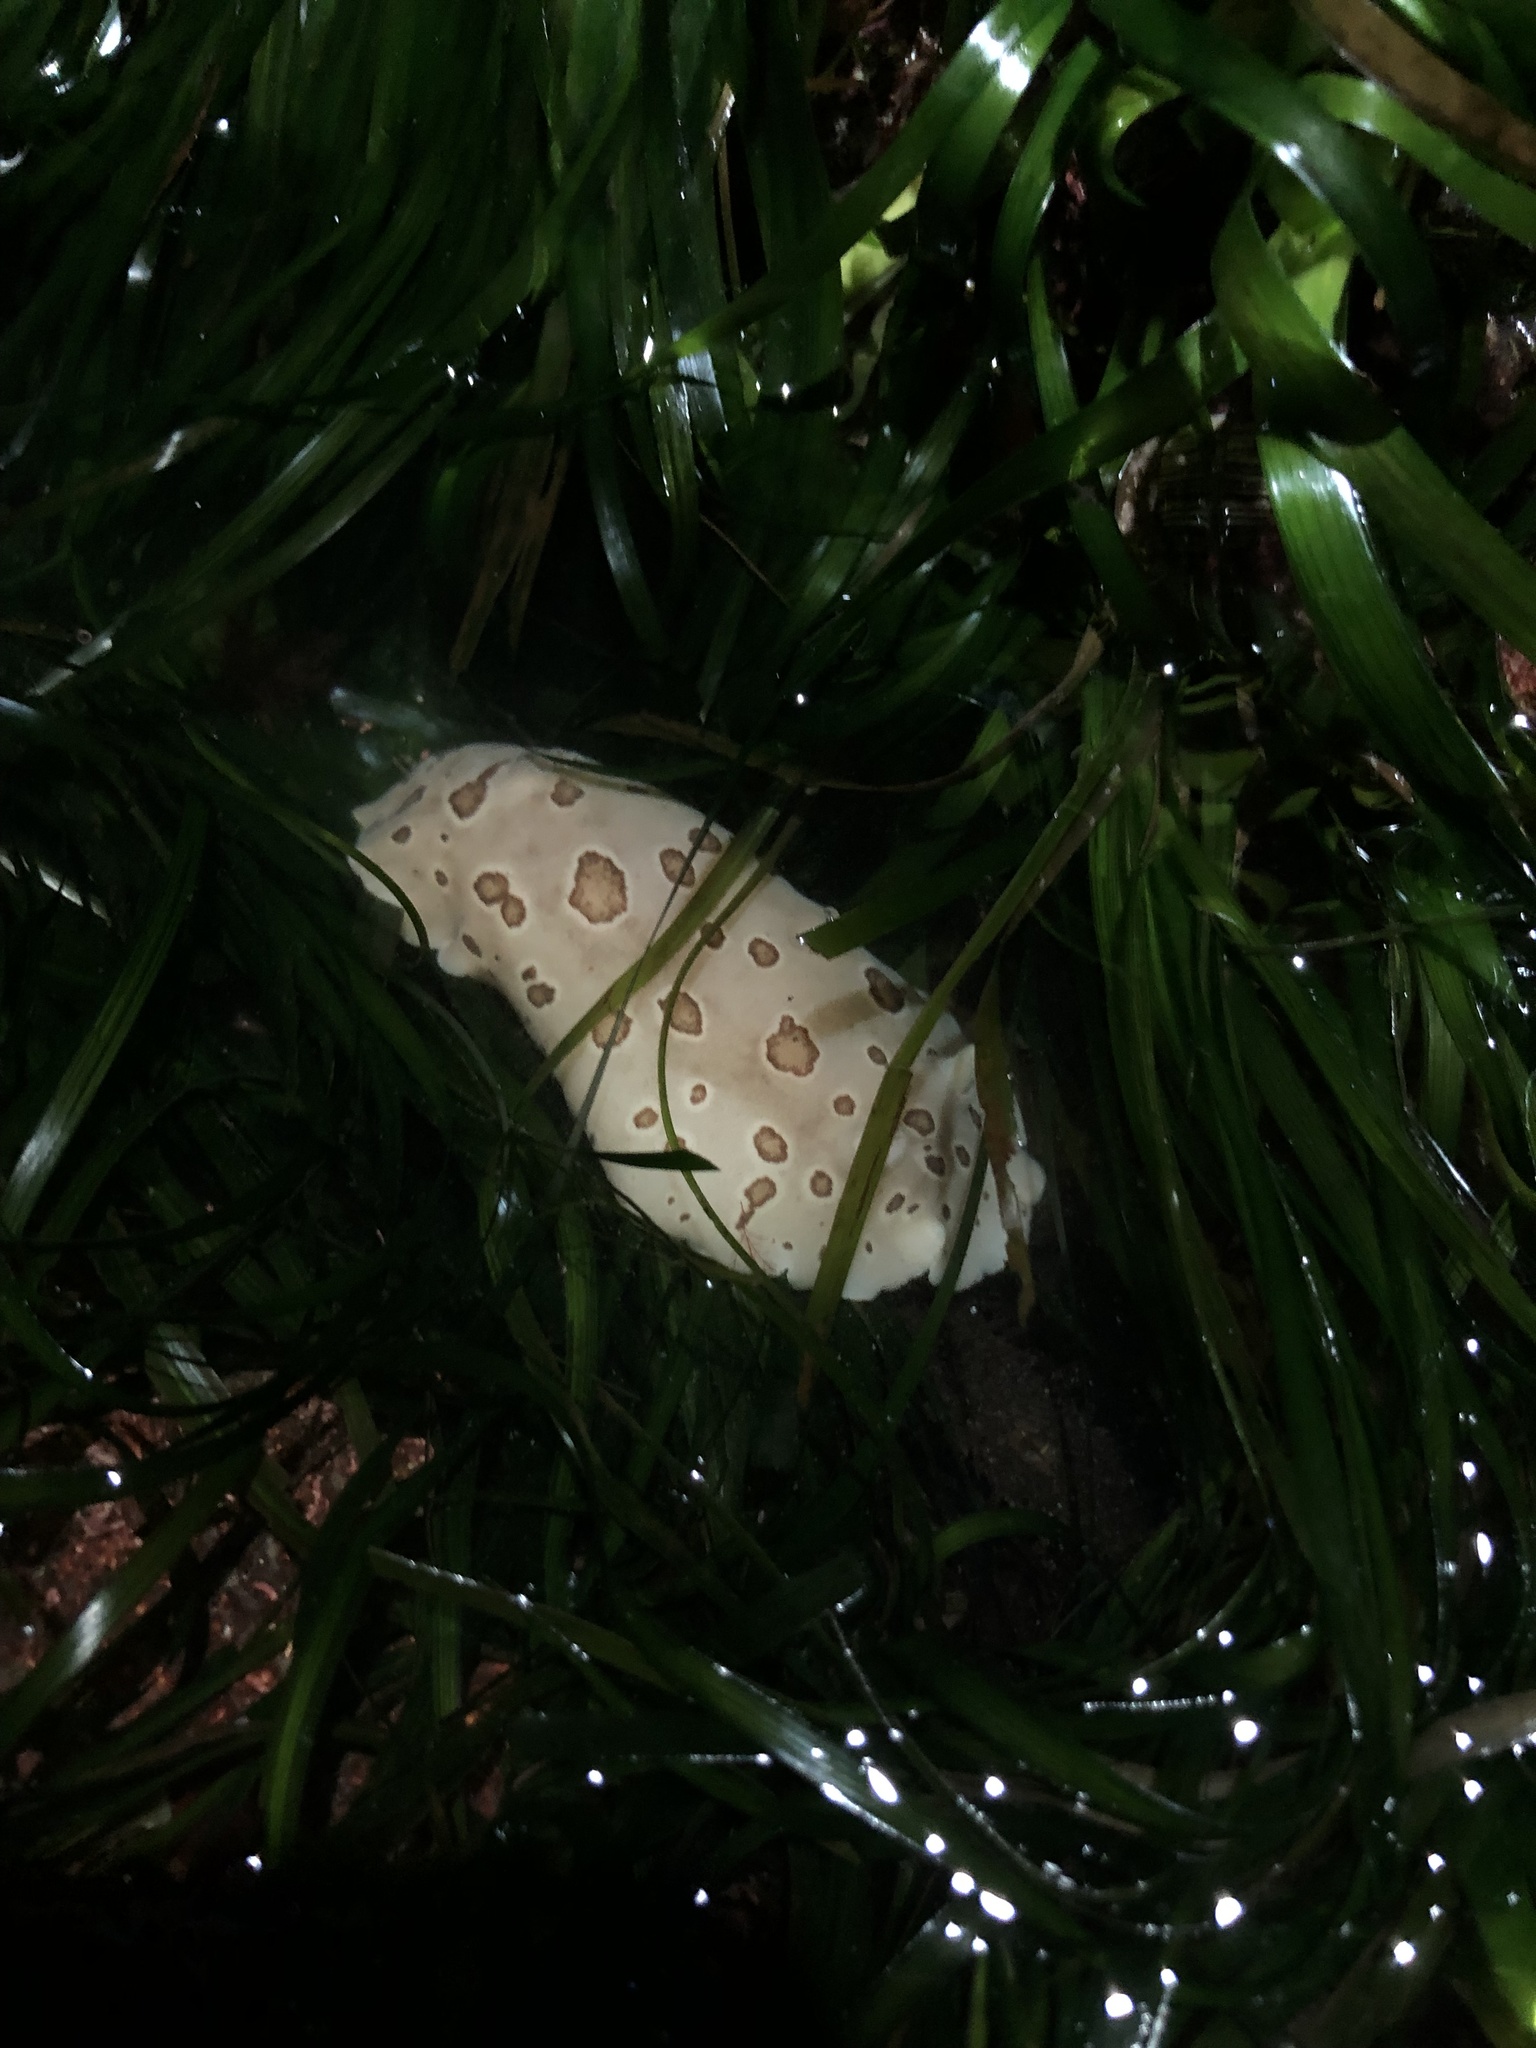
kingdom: Animalia
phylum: Mollusca
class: Gastropoda
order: Nudibranchia
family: Discodorididae
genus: Diaulula
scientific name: Diaulula odonoghuei
